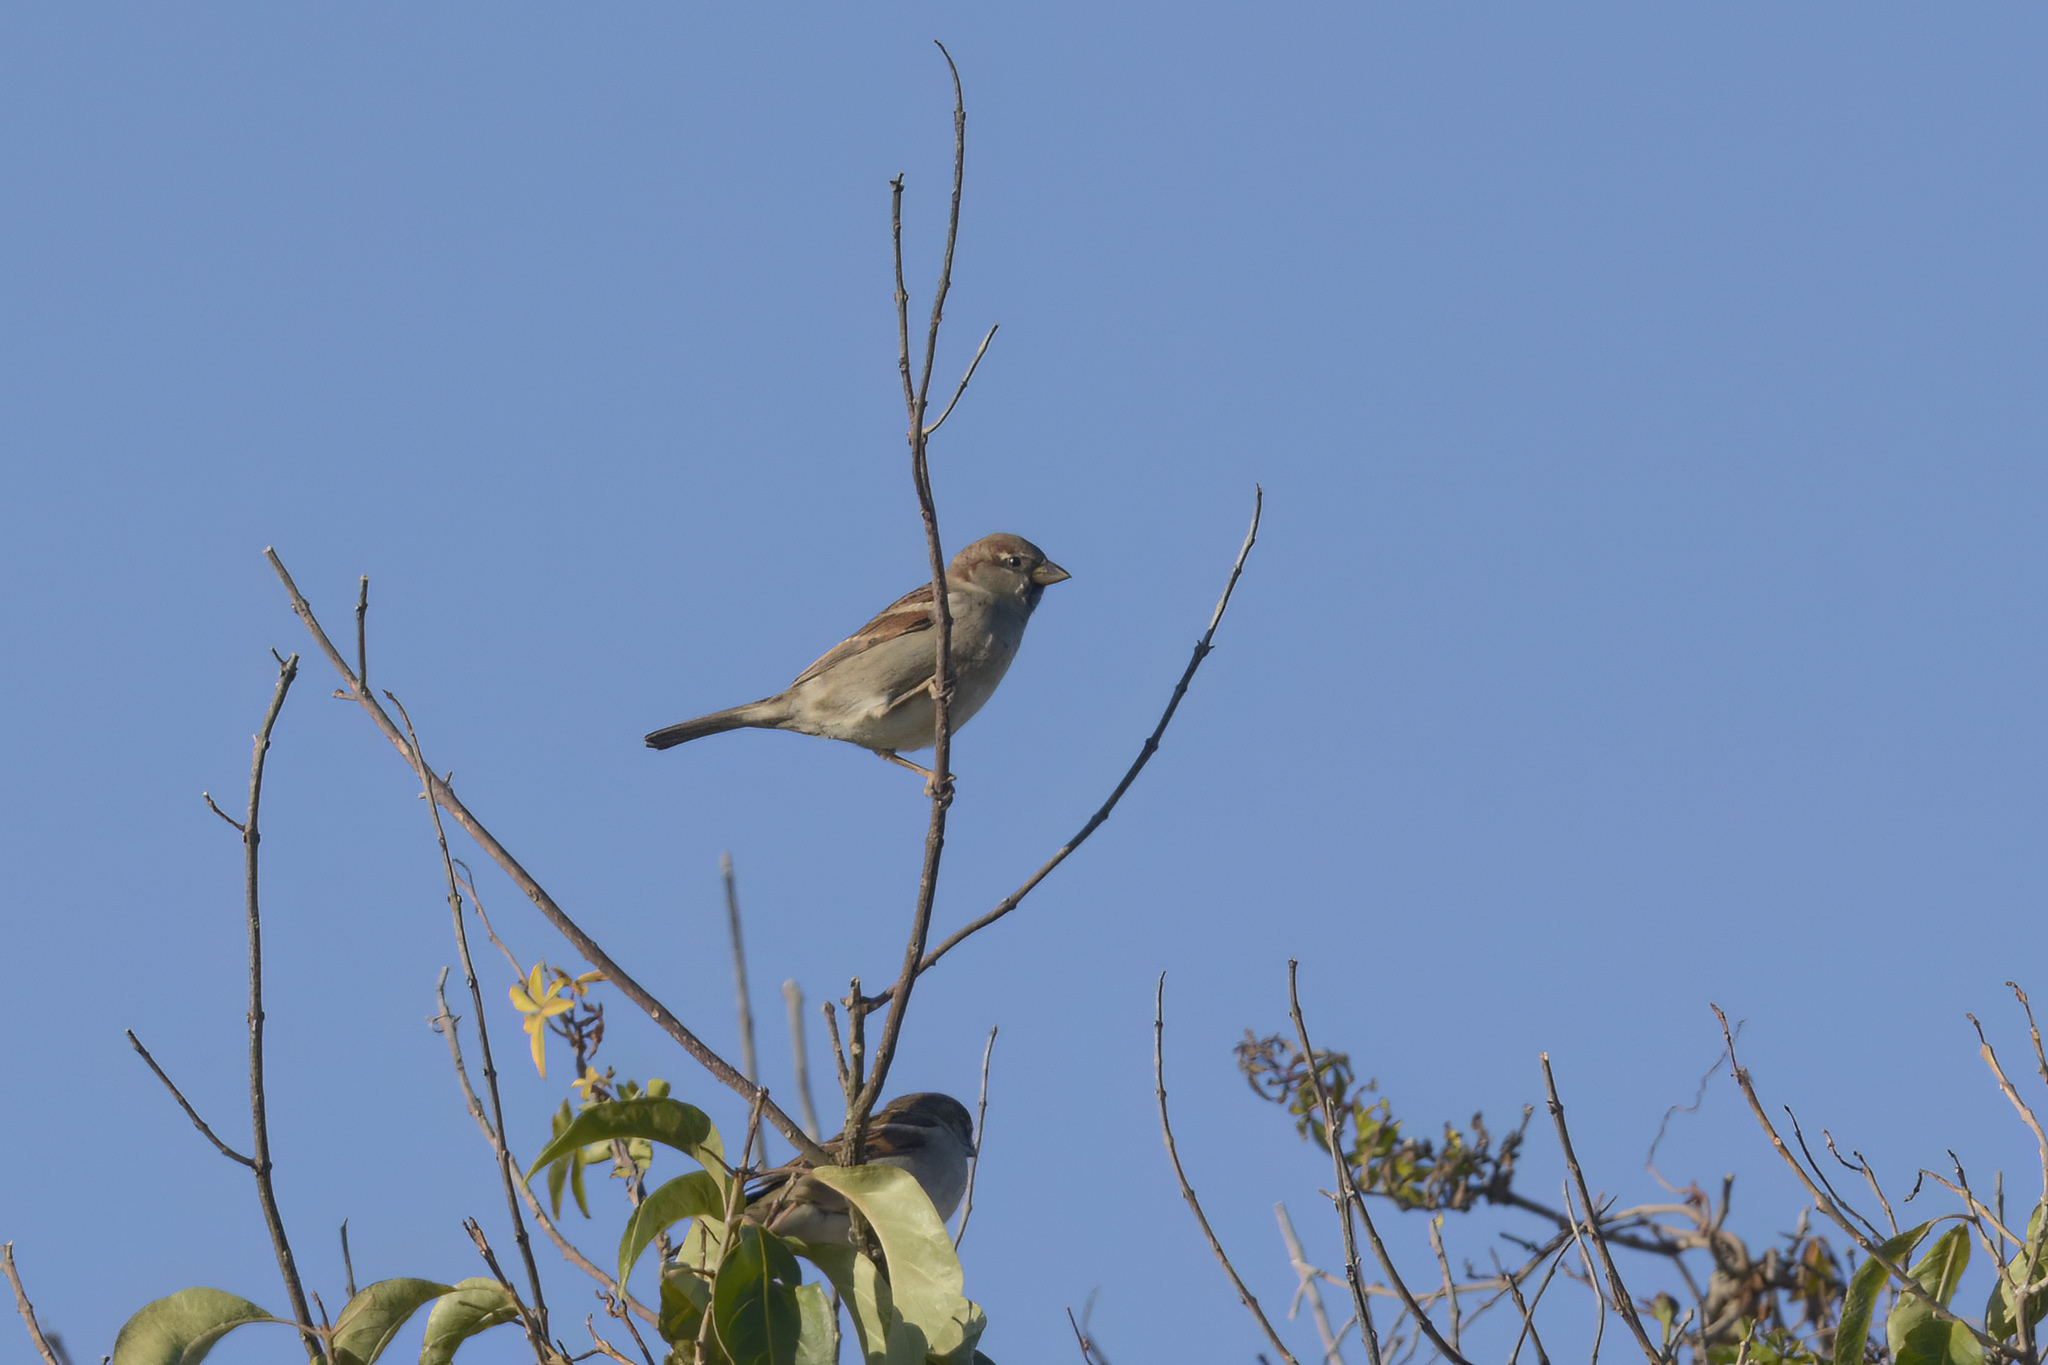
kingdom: Animalia
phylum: Chordata
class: Aves
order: Passeriformes
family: Passeridae
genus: Passer
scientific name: Passer domesticus
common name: House sparrow
